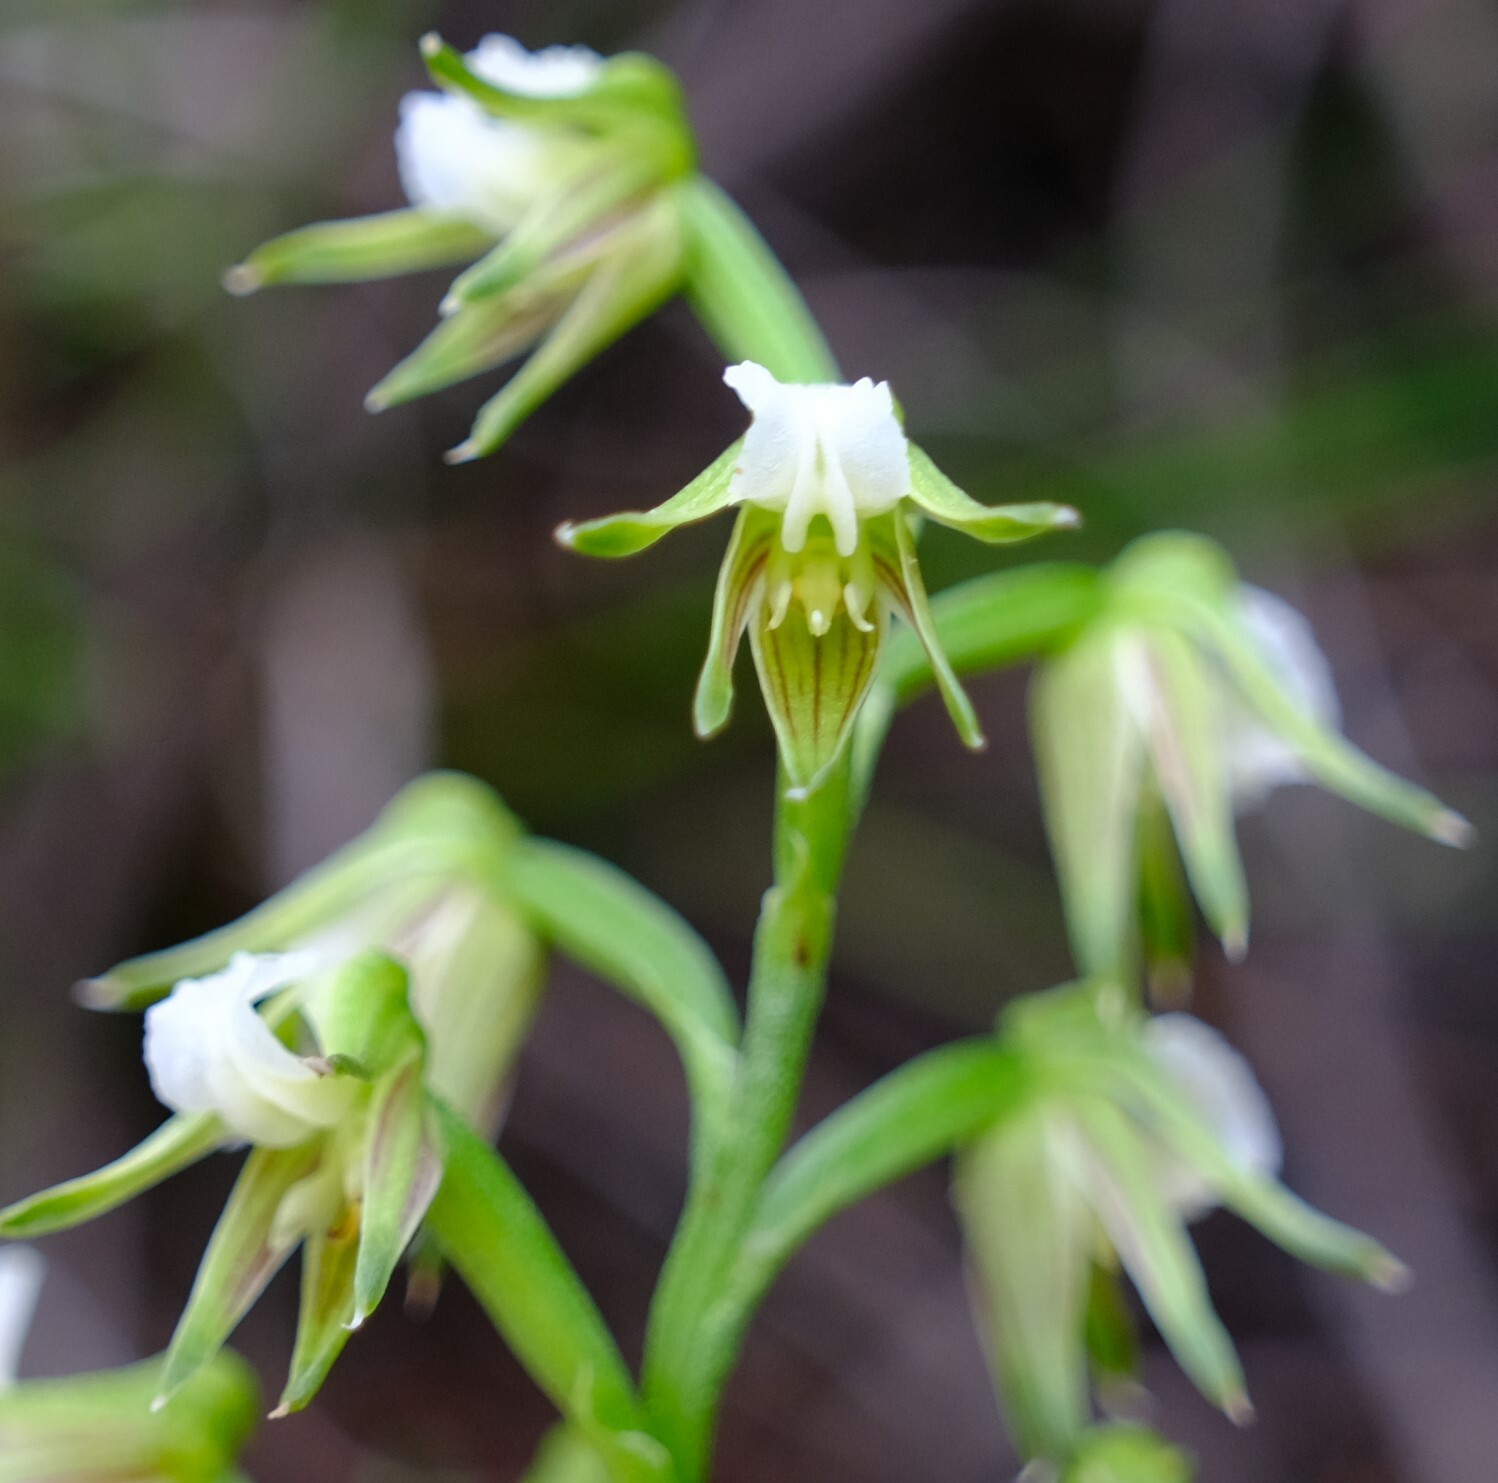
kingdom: Plantae
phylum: Tracheophyta
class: Liliopsida
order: Asparagales
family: Orchidaceae
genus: Prasophyllum
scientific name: Prasophyllum parvifolium
